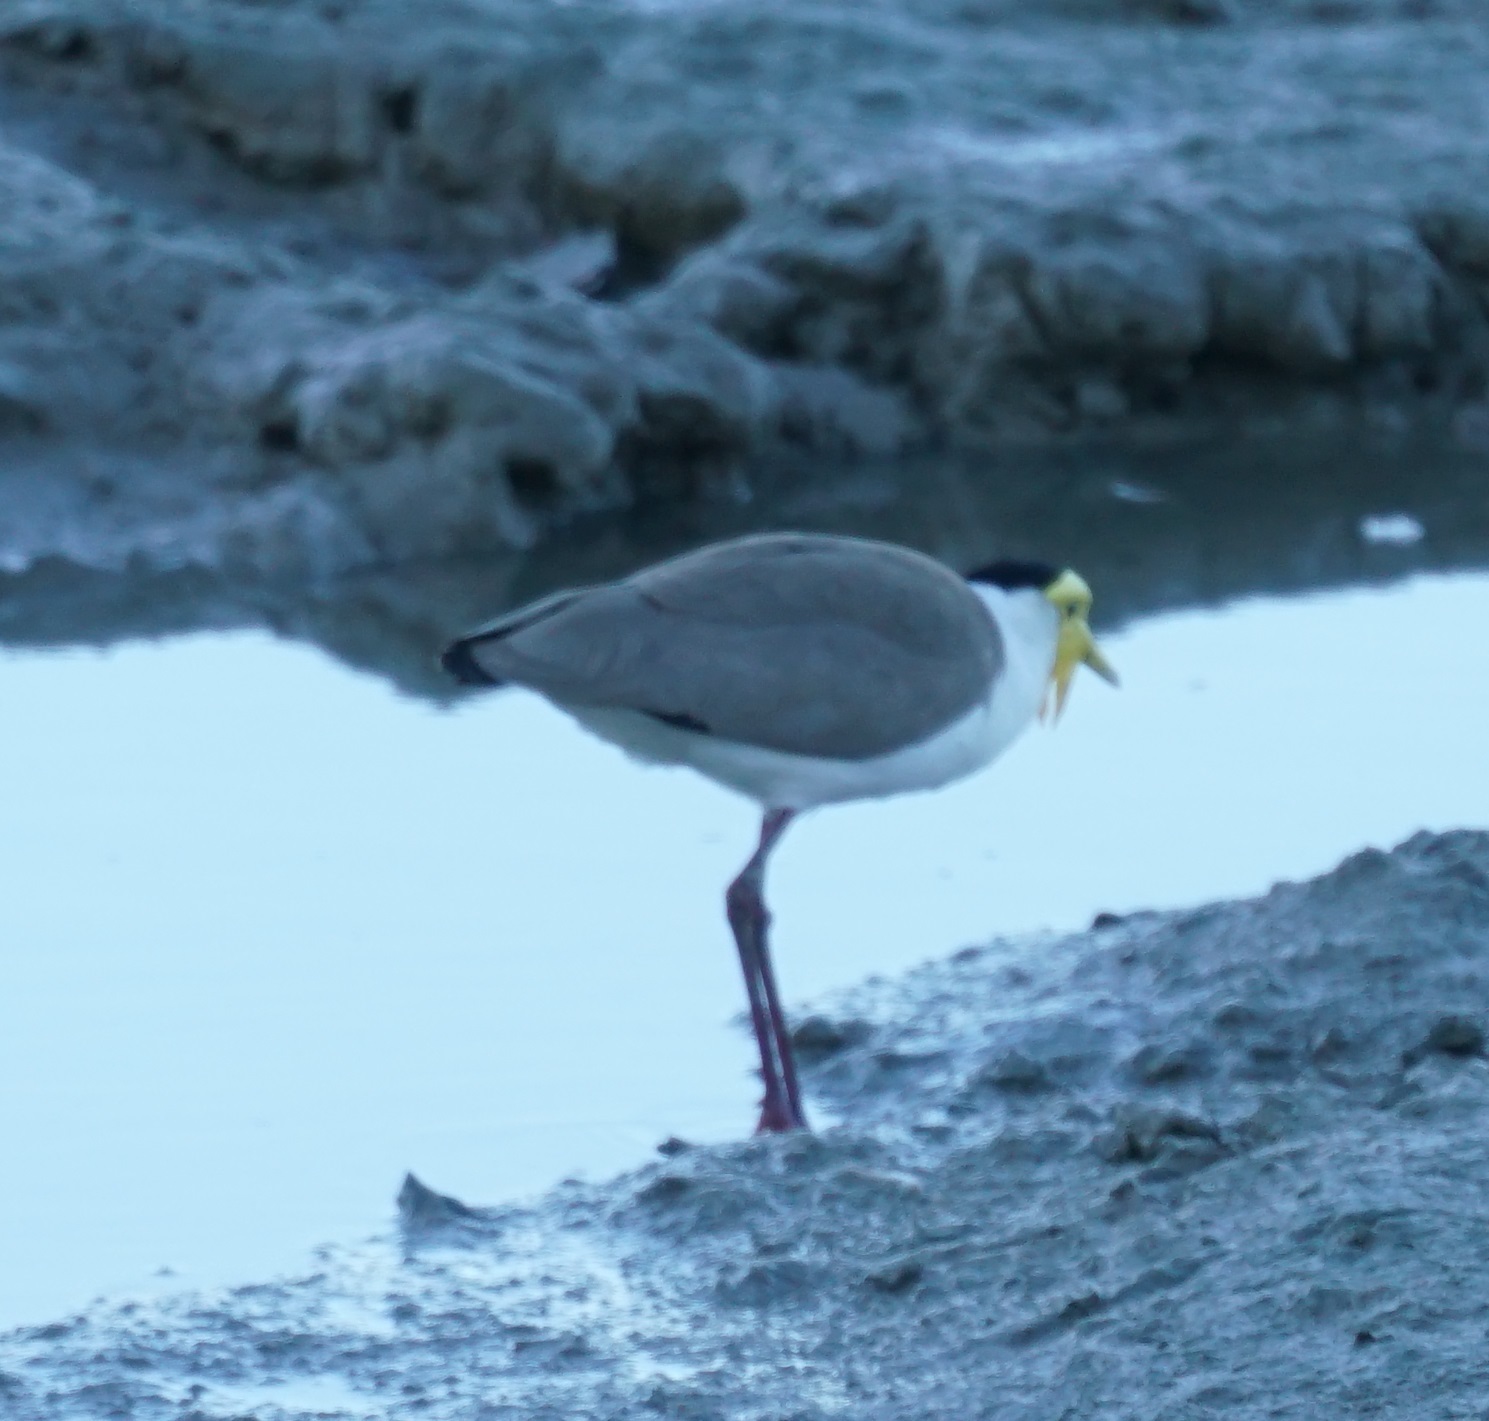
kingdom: Animalia
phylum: Chordata
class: Aves
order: Charadriiformes
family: Charadriidae
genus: Vanellus
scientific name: Vanellus miles
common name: Masked lapwing
